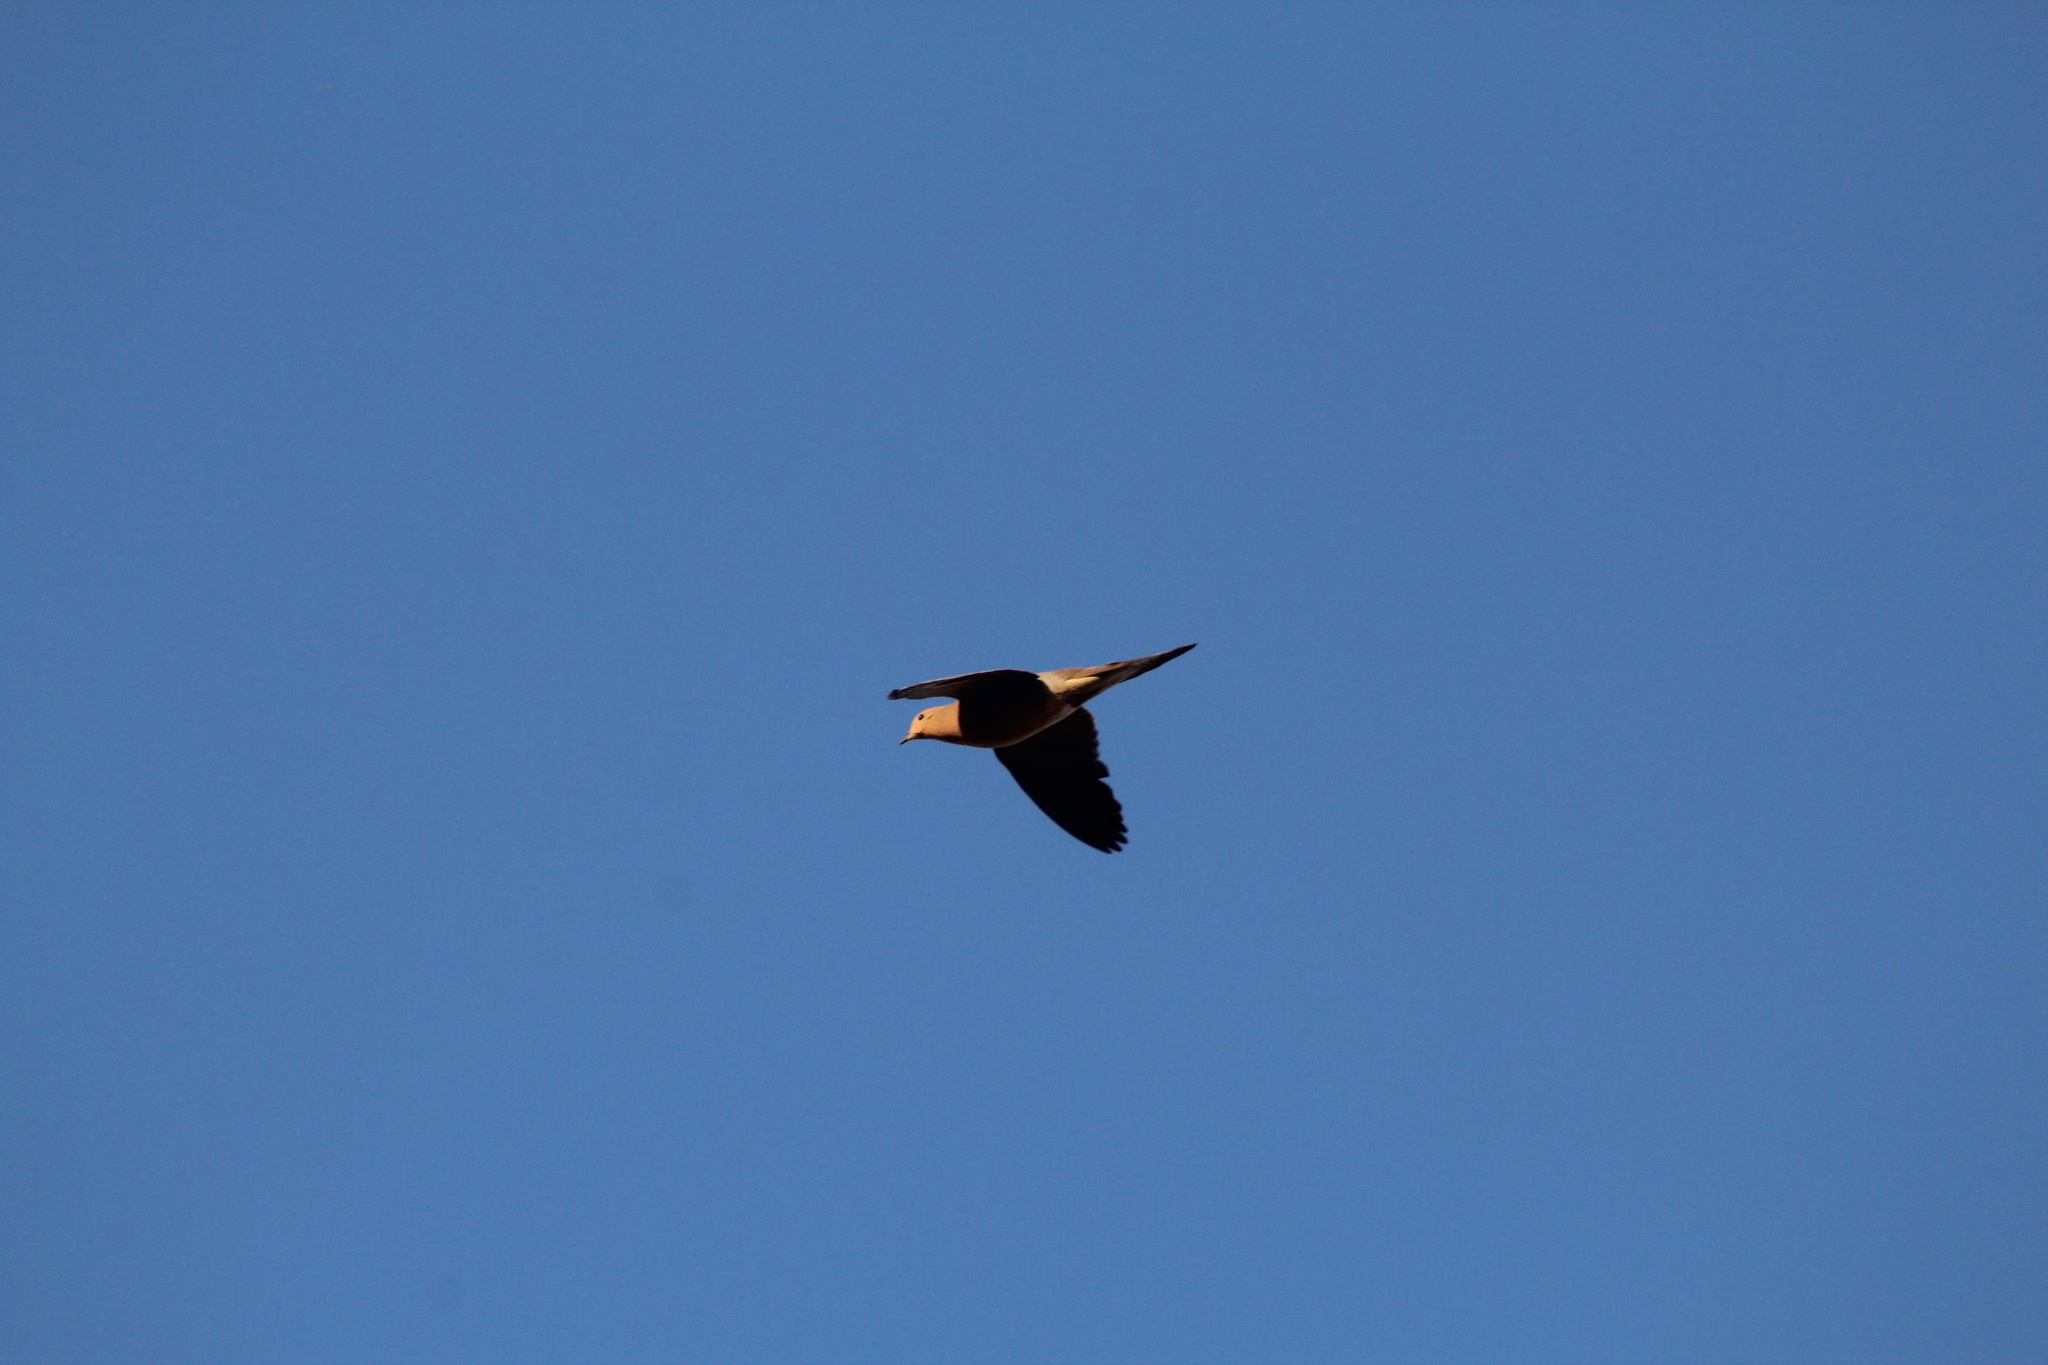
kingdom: Animalia
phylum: Chordata
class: Aves
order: Columbiformes
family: Columbidae
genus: Zenaida
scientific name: Zenaida macroura
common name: Mourning dove
